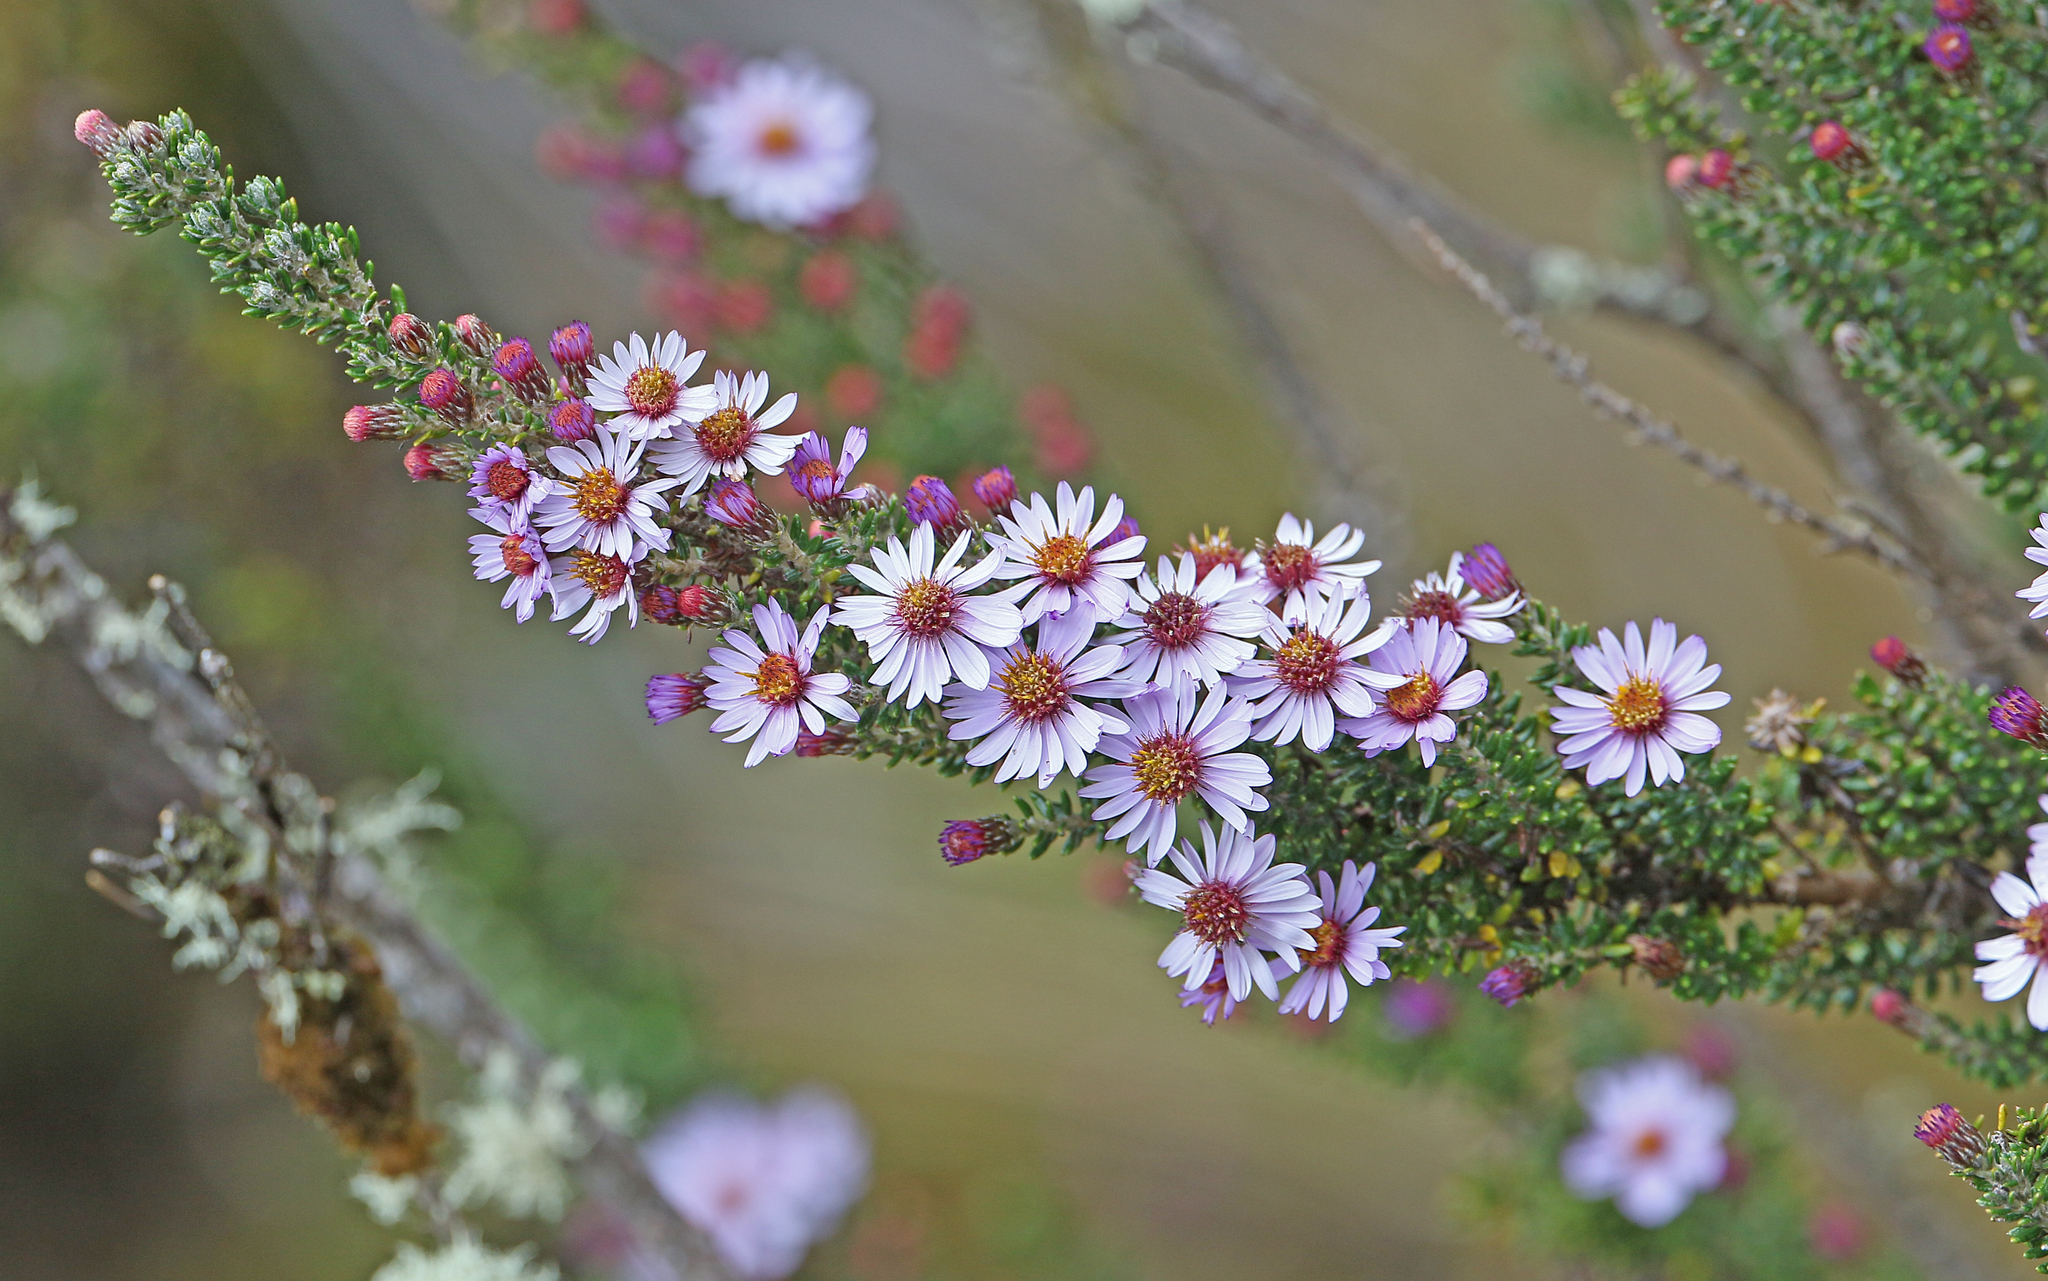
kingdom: Plantae
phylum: Tracheophyta
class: Magnoliopsida
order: Asterales
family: Asteraceae
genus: Diplostephium
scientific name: Diplostephium hartwegii
